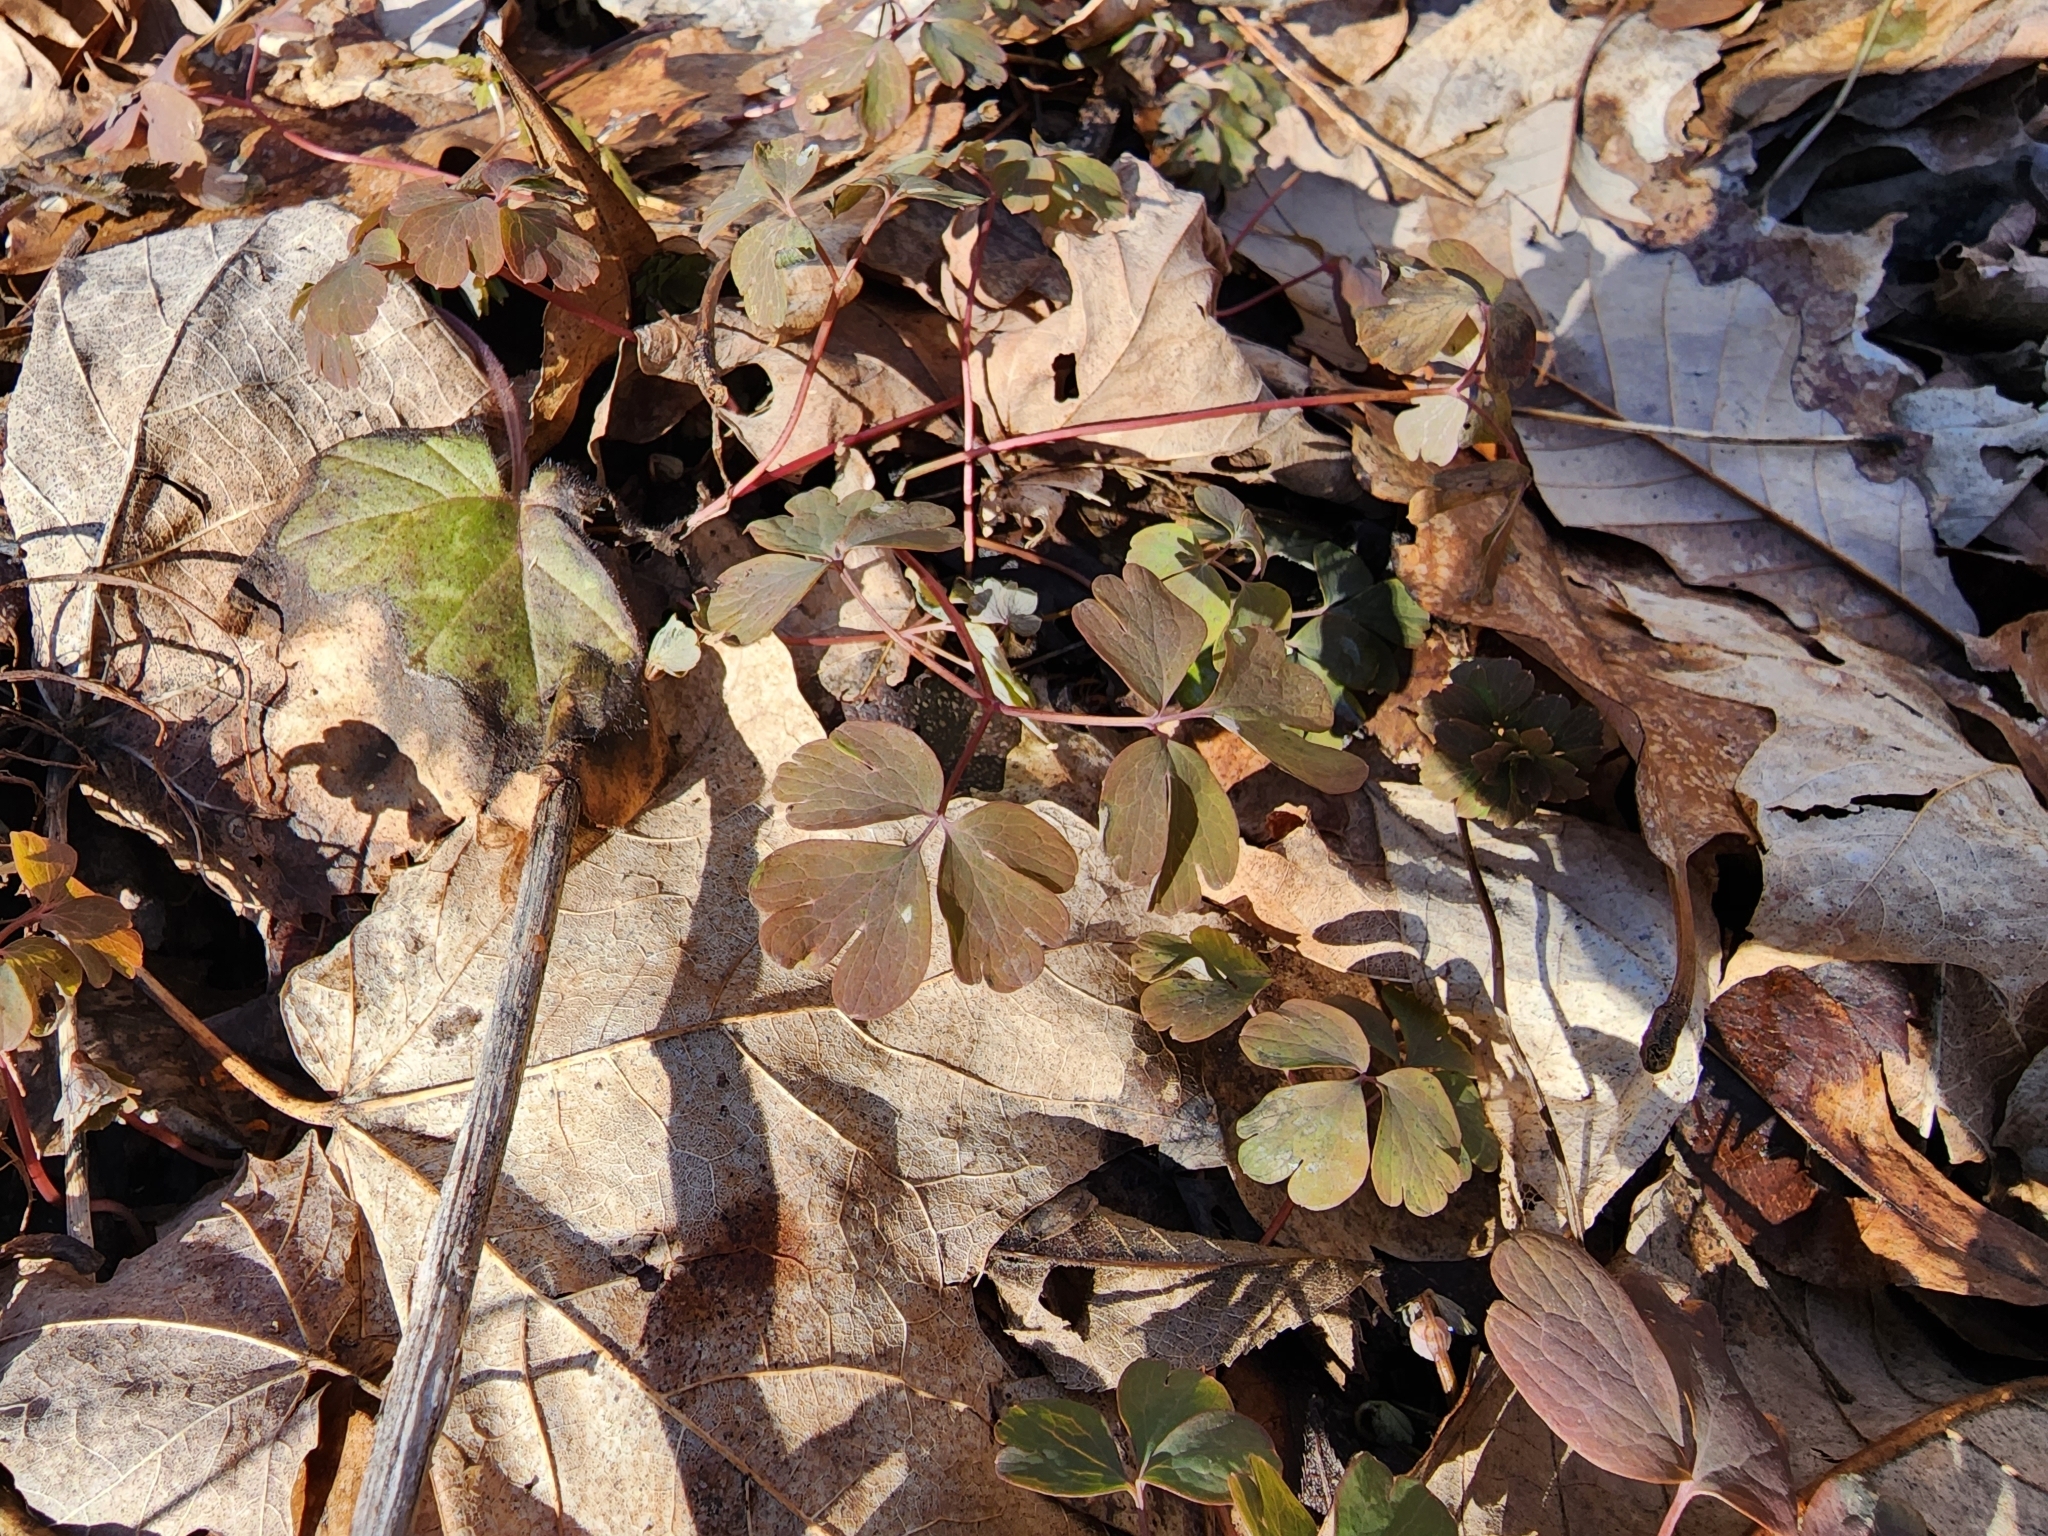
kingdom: Plantae
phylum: Tracheophyta
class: Magnoliopsida
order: Ranunculales
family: Ranunculaceae
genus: Enemion
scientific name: Enemion biternatum
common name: Eastern false rue-anemone
